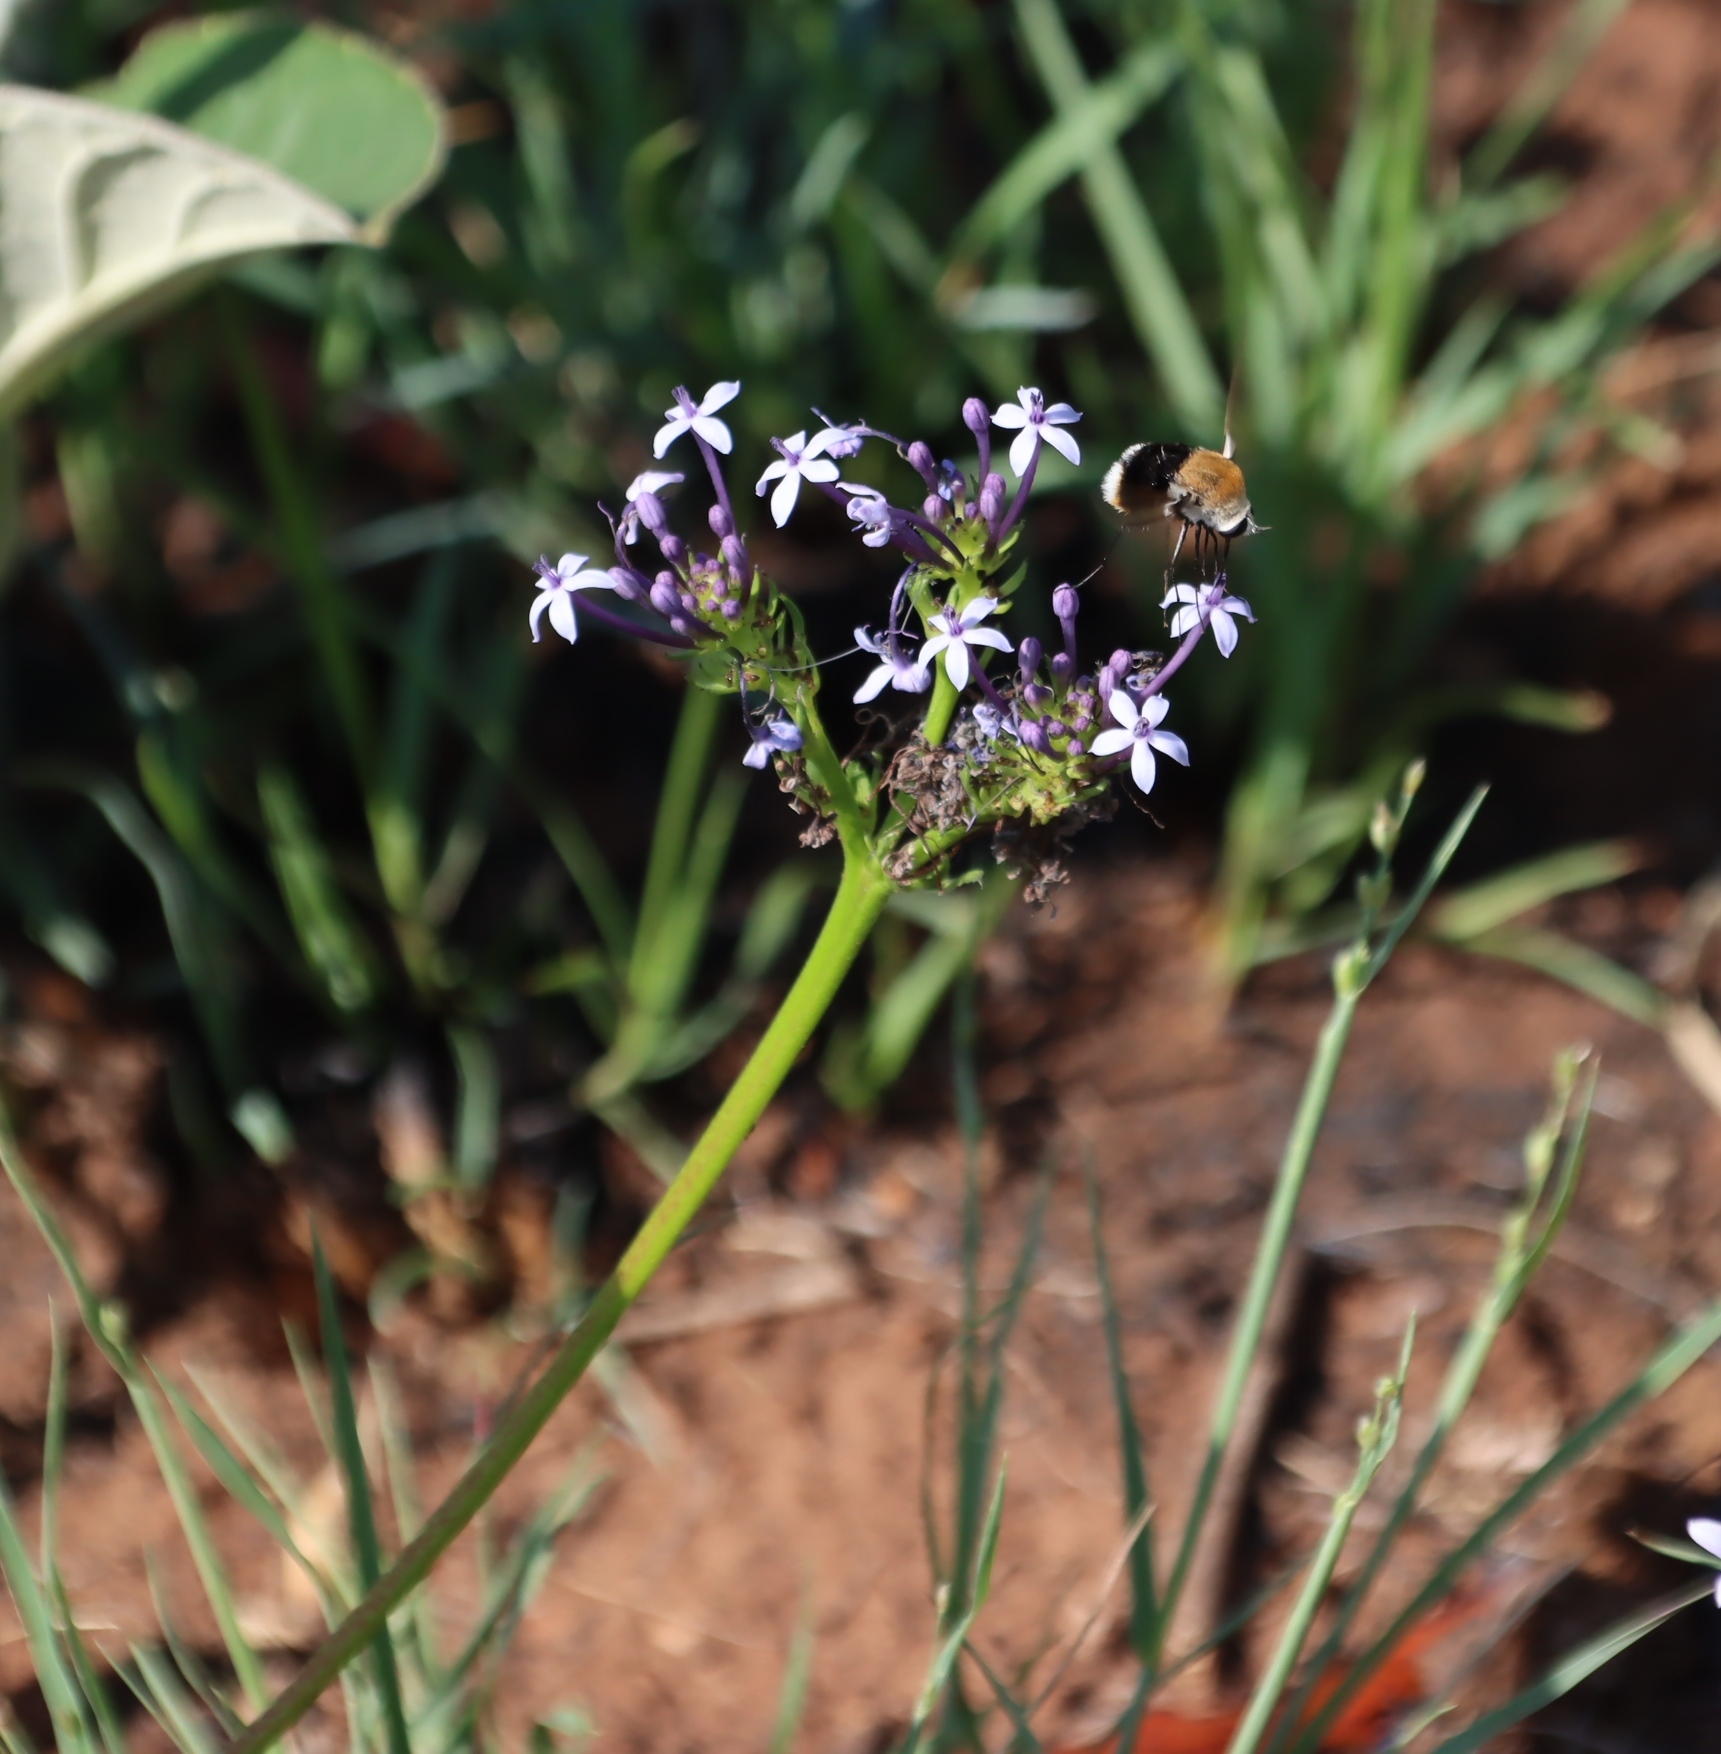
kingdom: Plantae
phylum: Tracheophyta
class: Magnoliopsida
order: Gentianales
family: Rubiaceae
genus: Pentanisia
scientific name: Pentanisia angustifolia
